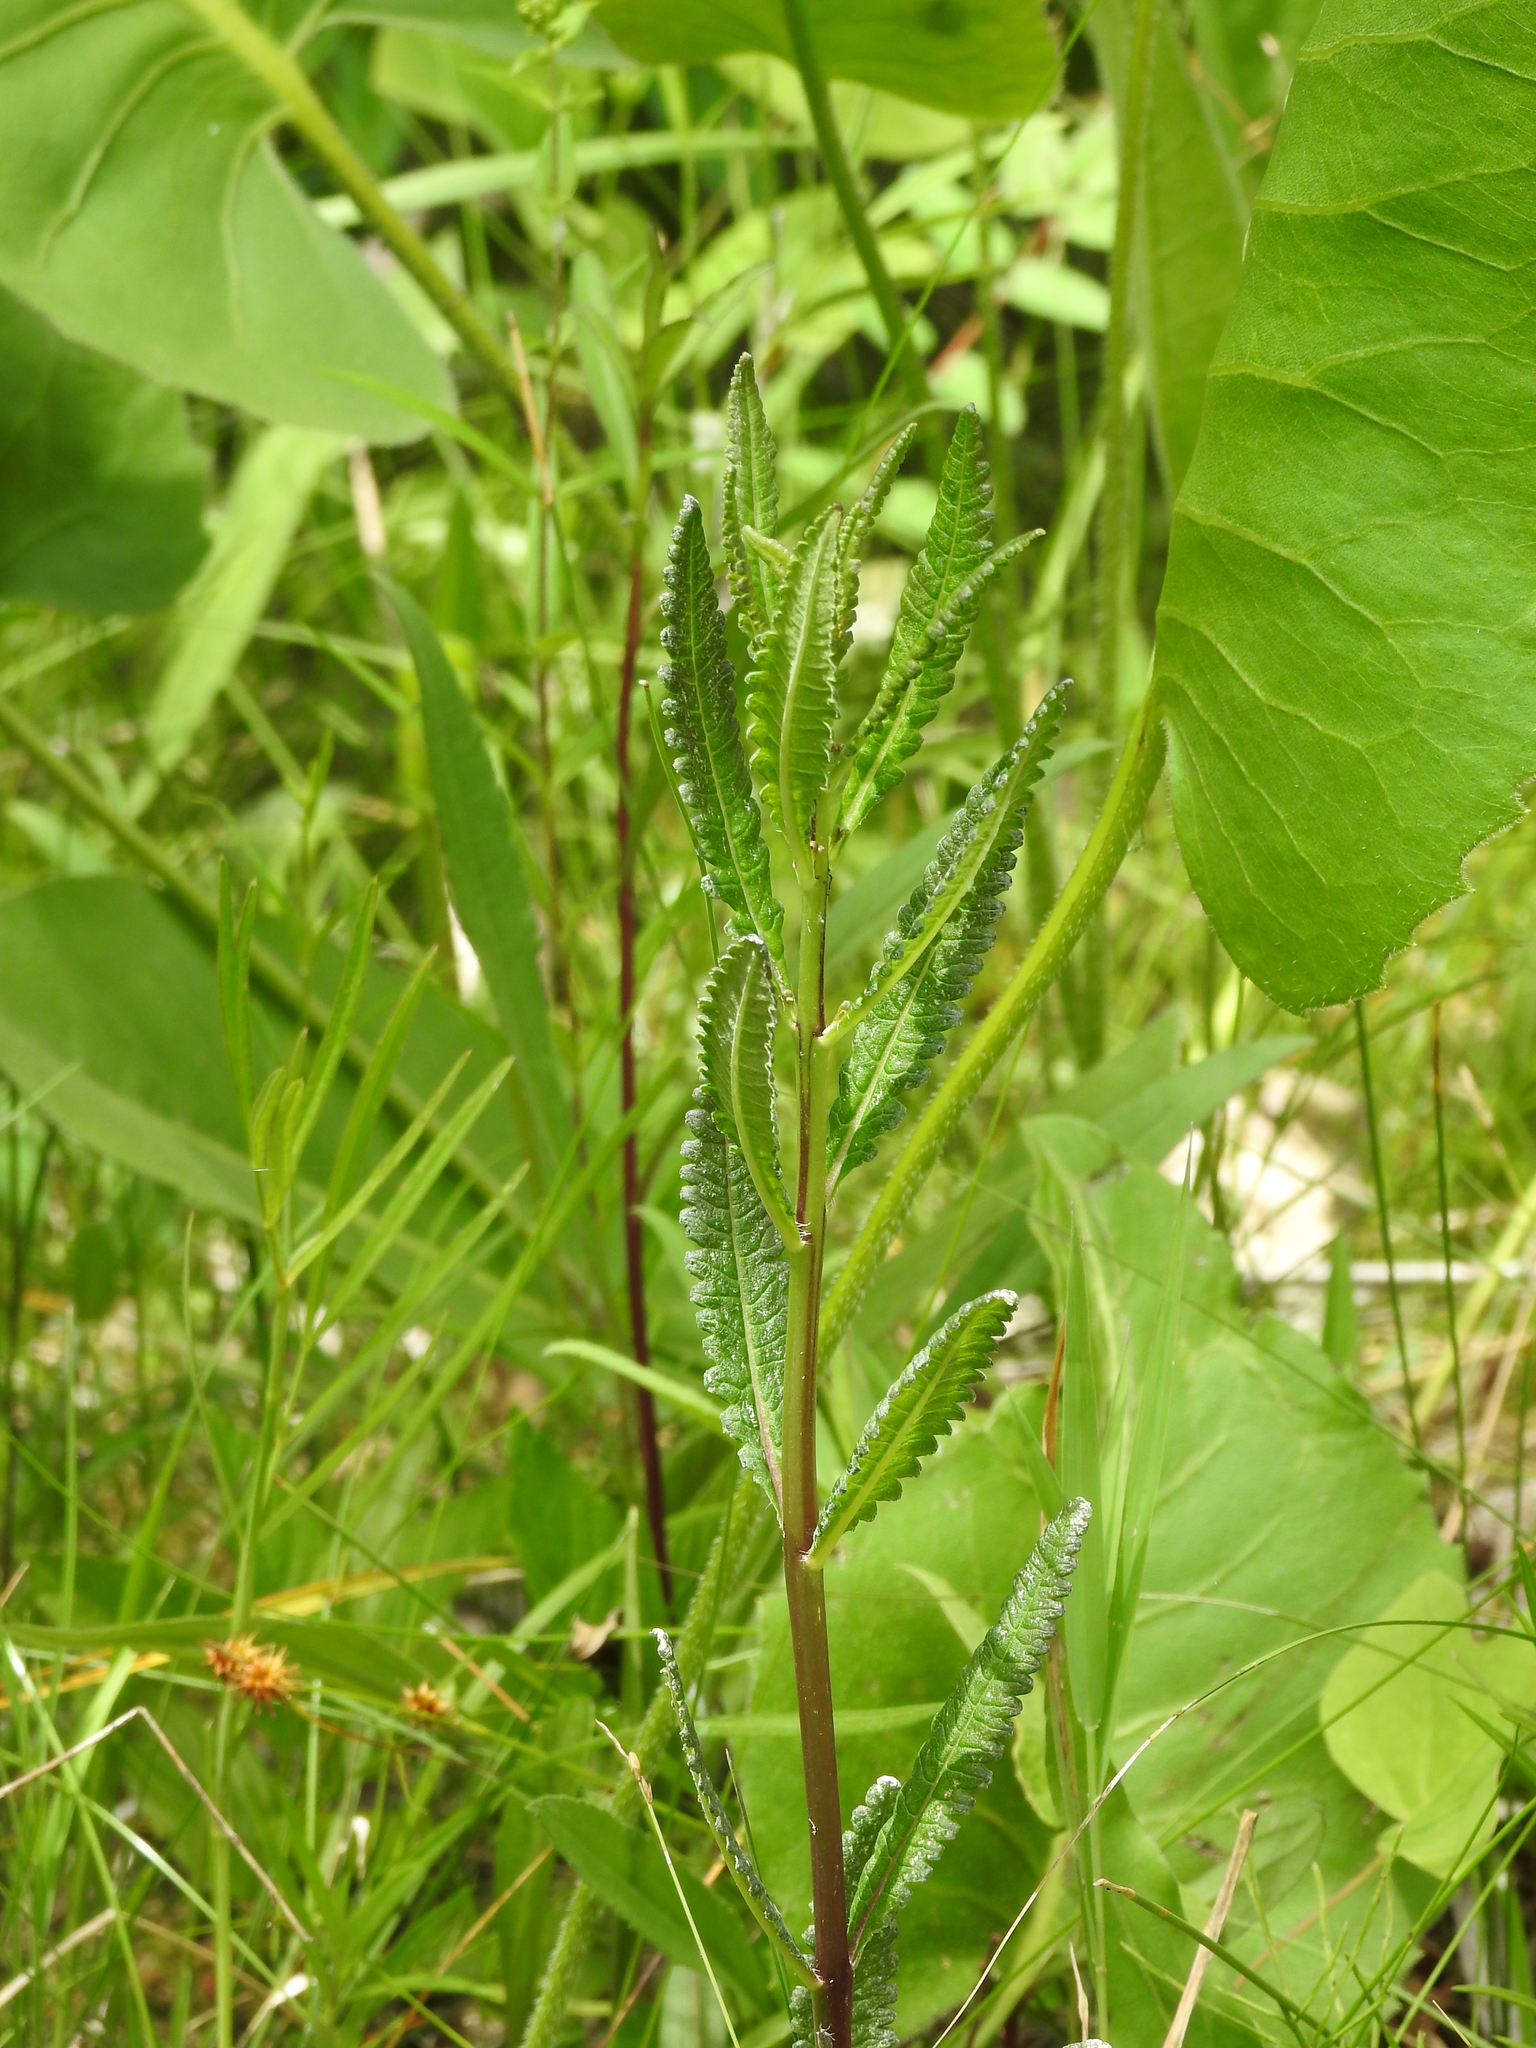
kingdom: Plantae
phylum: Tracheophyta
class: Magnoliopsida
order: Lamiales
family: Orobanchaceae
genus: Pedicularis
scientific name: Pedicularis lanceolata
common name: Swamp lousewort
